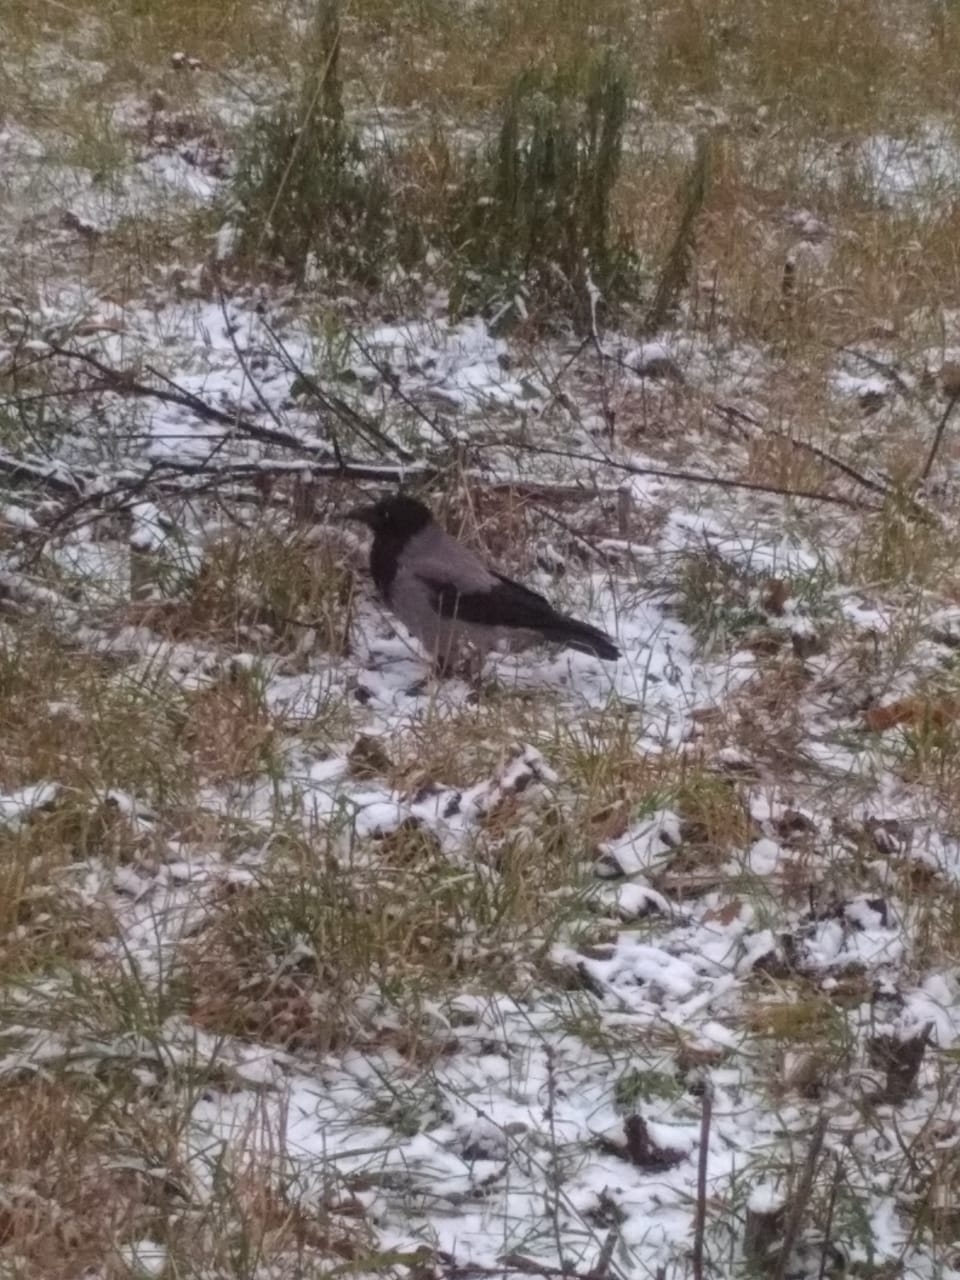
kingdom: Animalia
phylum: Chordata
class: Aves
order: Passeriformes
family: Corvidae
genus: Corvus
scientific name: Corvus cornix
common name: Hooded crow
